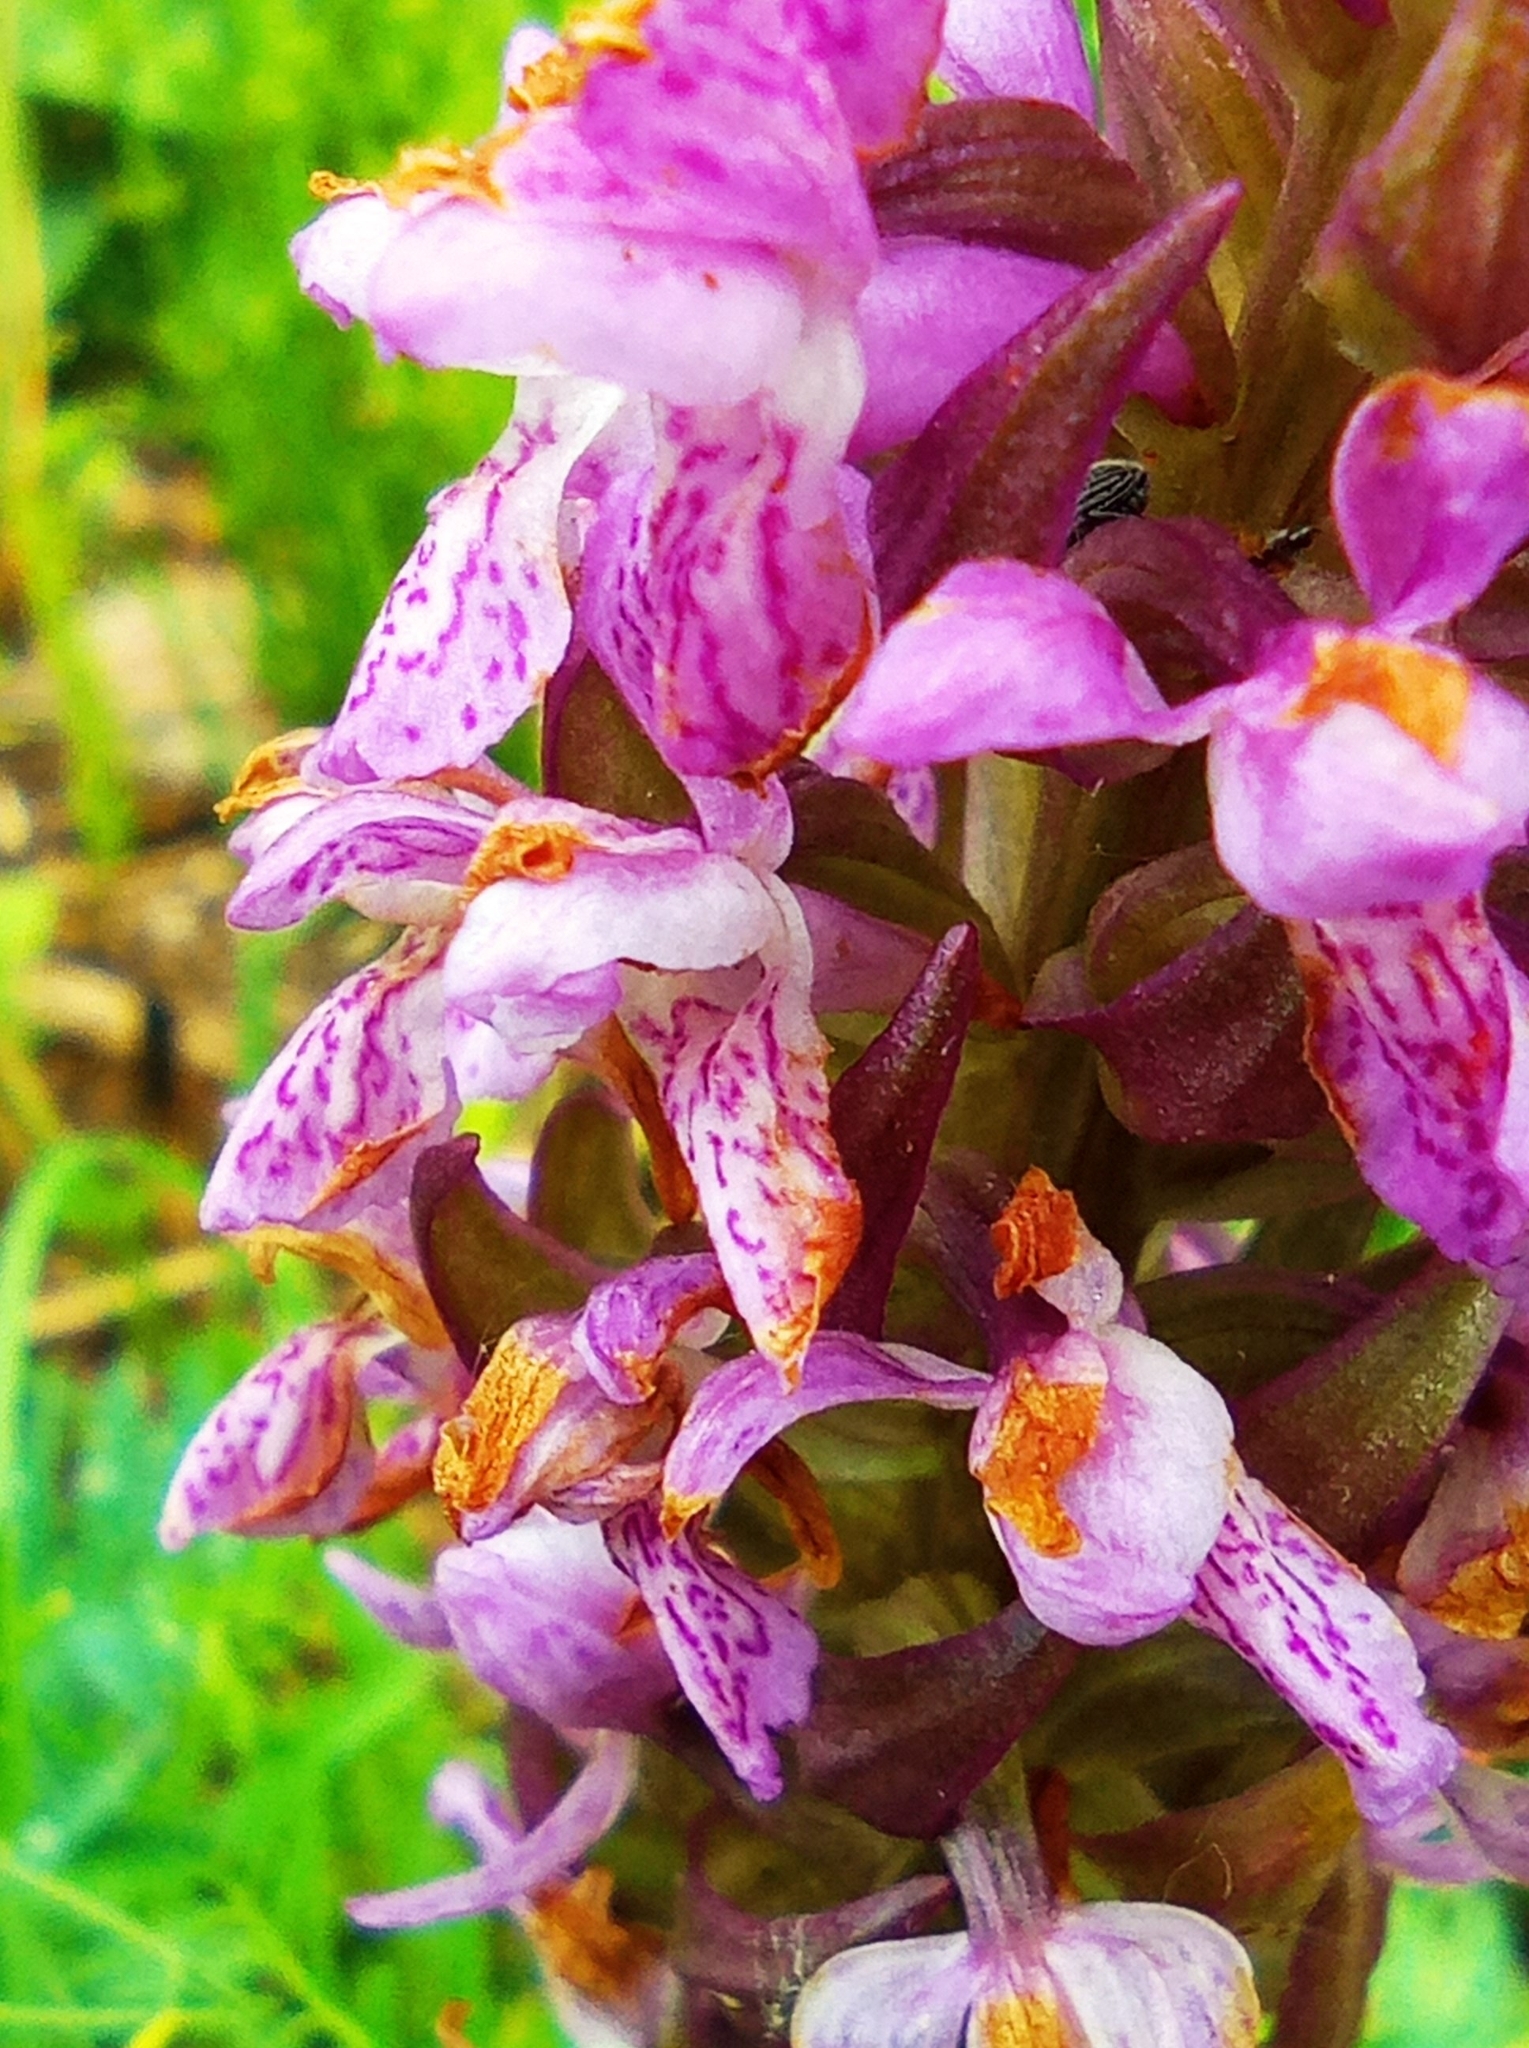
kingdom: Plantae
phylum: Tracheophyta
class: Liliopsida
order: Asparagales
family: Orchidaceae
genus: Dactylorhiza
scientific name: Dactylorhiza incarnata
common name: Early marsh-orchid
